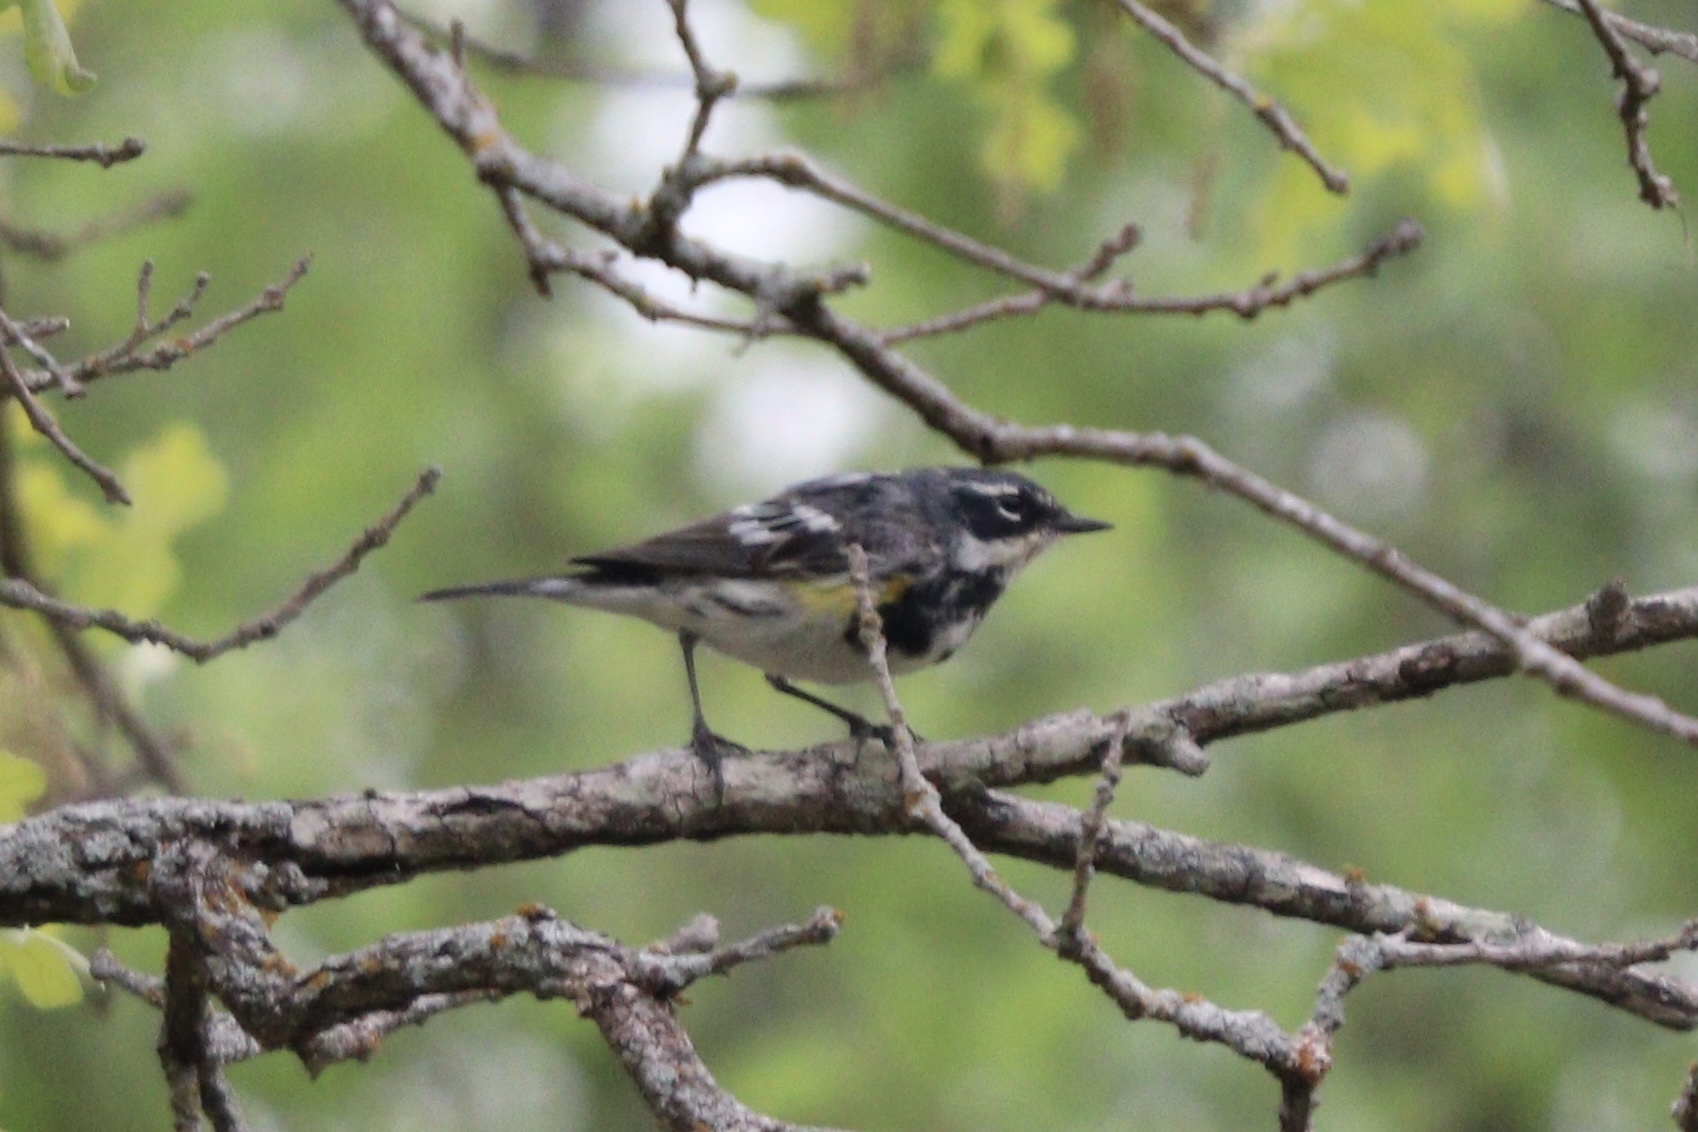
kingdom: Animalia
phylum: Chordata
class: Aves
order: Passeriformes
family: Parulidae
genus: Setophaga
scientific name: Setophaga coronata
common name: Myrtle warbler
